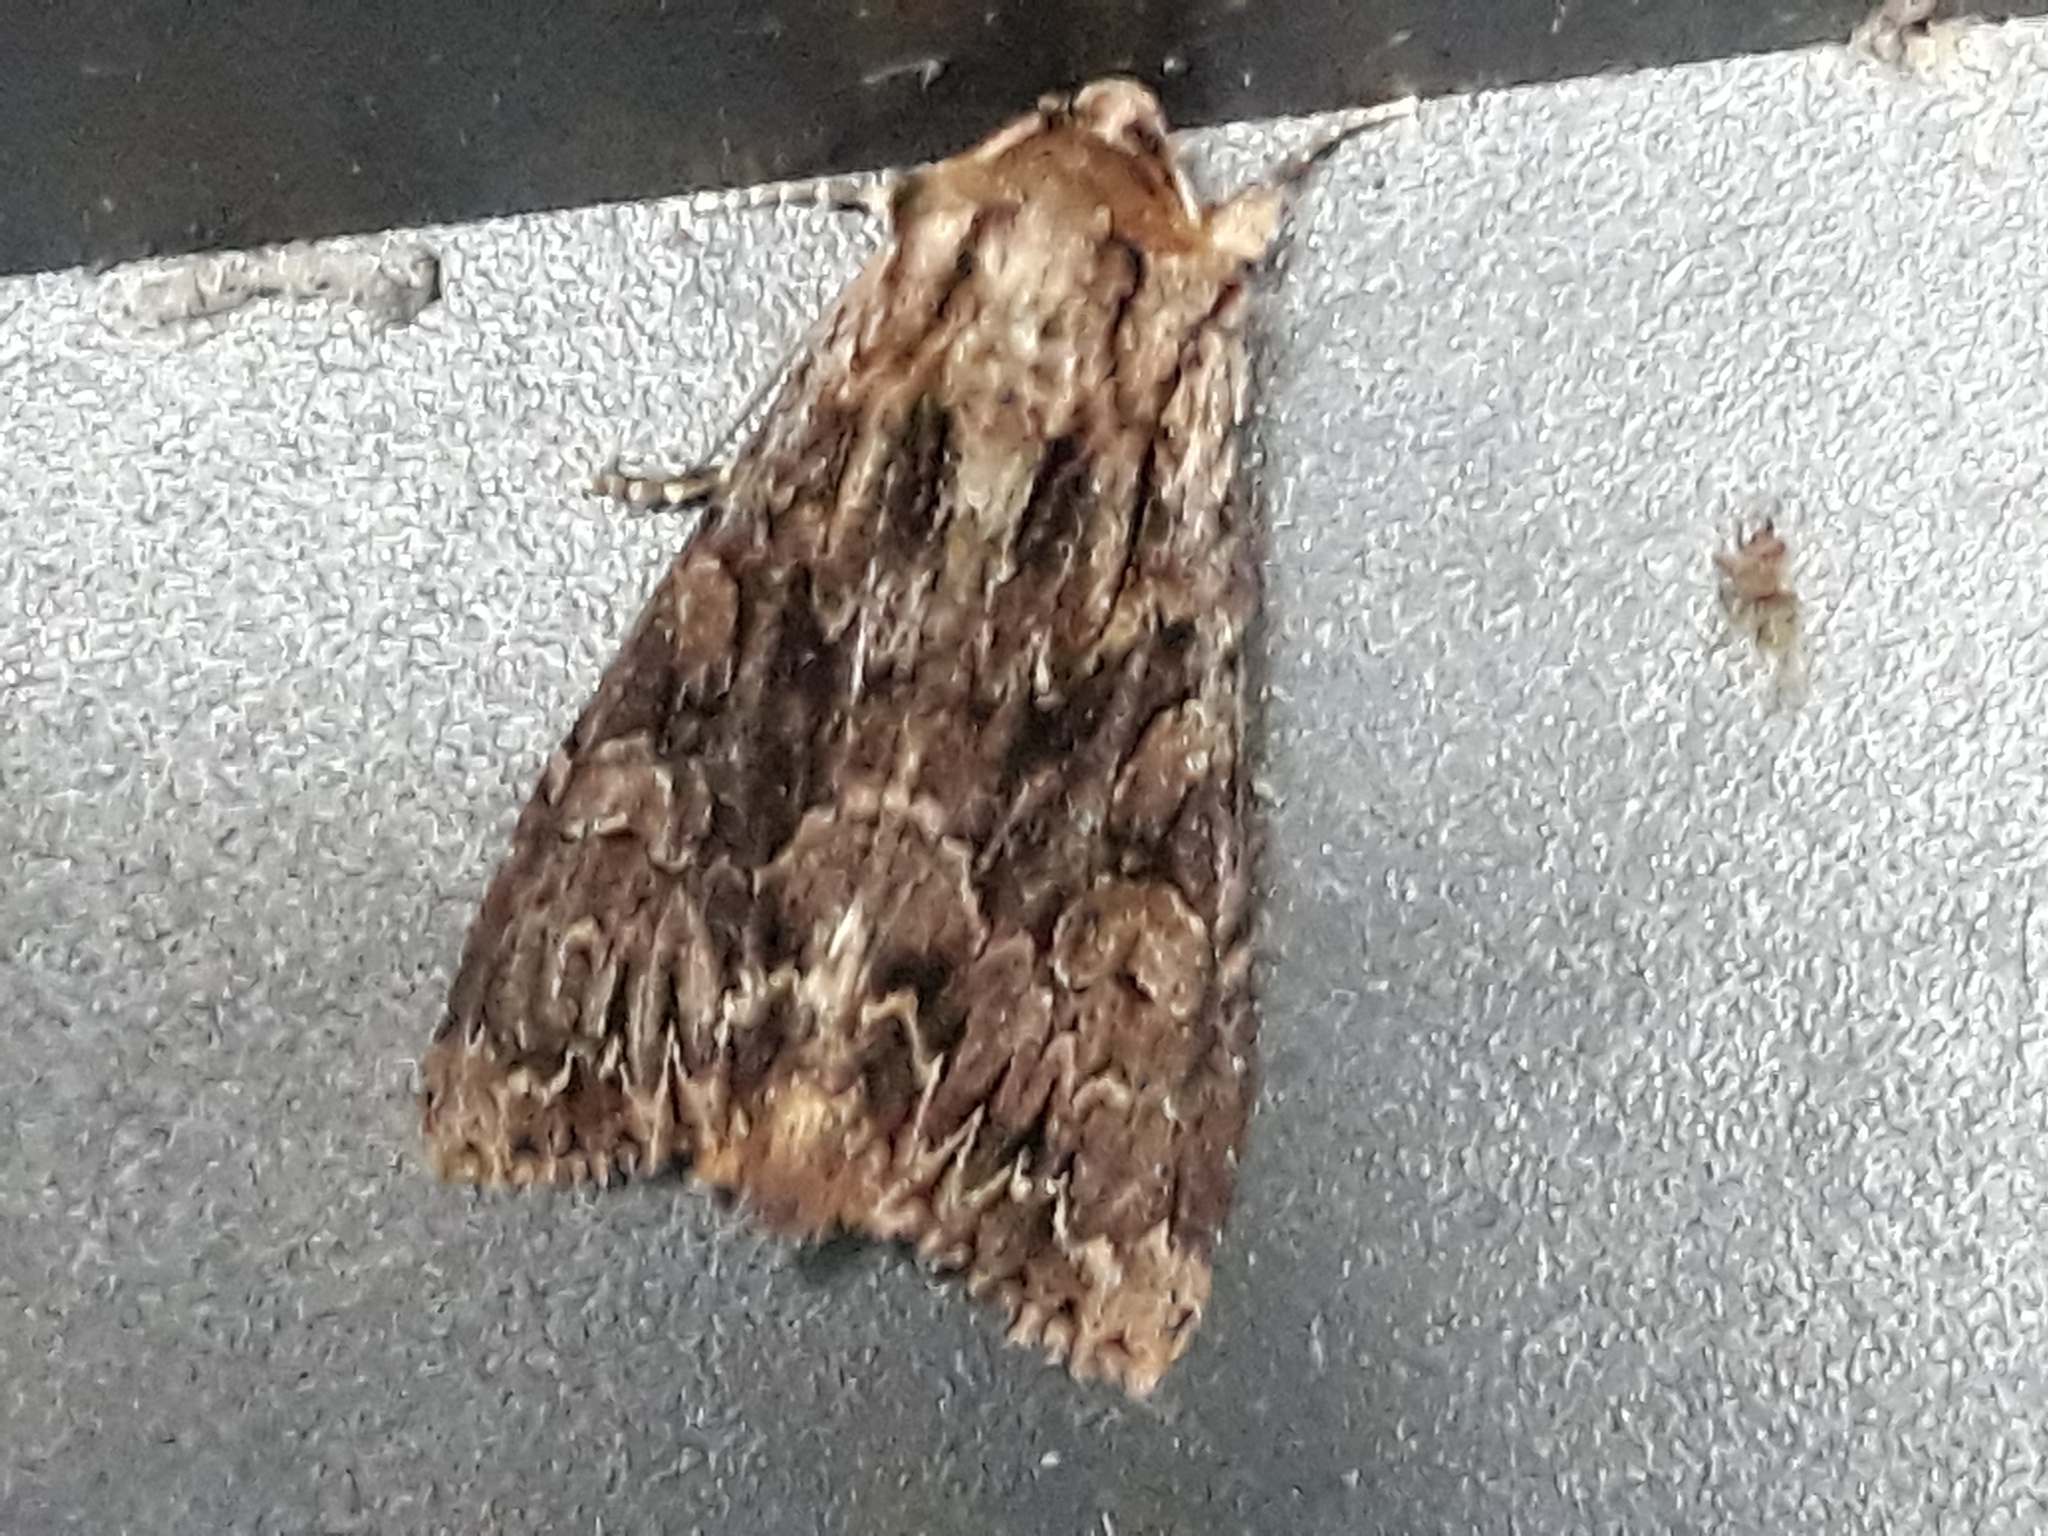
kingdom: Animalia
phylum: Arthropoda
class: Insecta
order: Lepidoptera
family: Noctuidae
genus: Apamea
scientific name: Apamea monoglypha
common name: Dark arches
